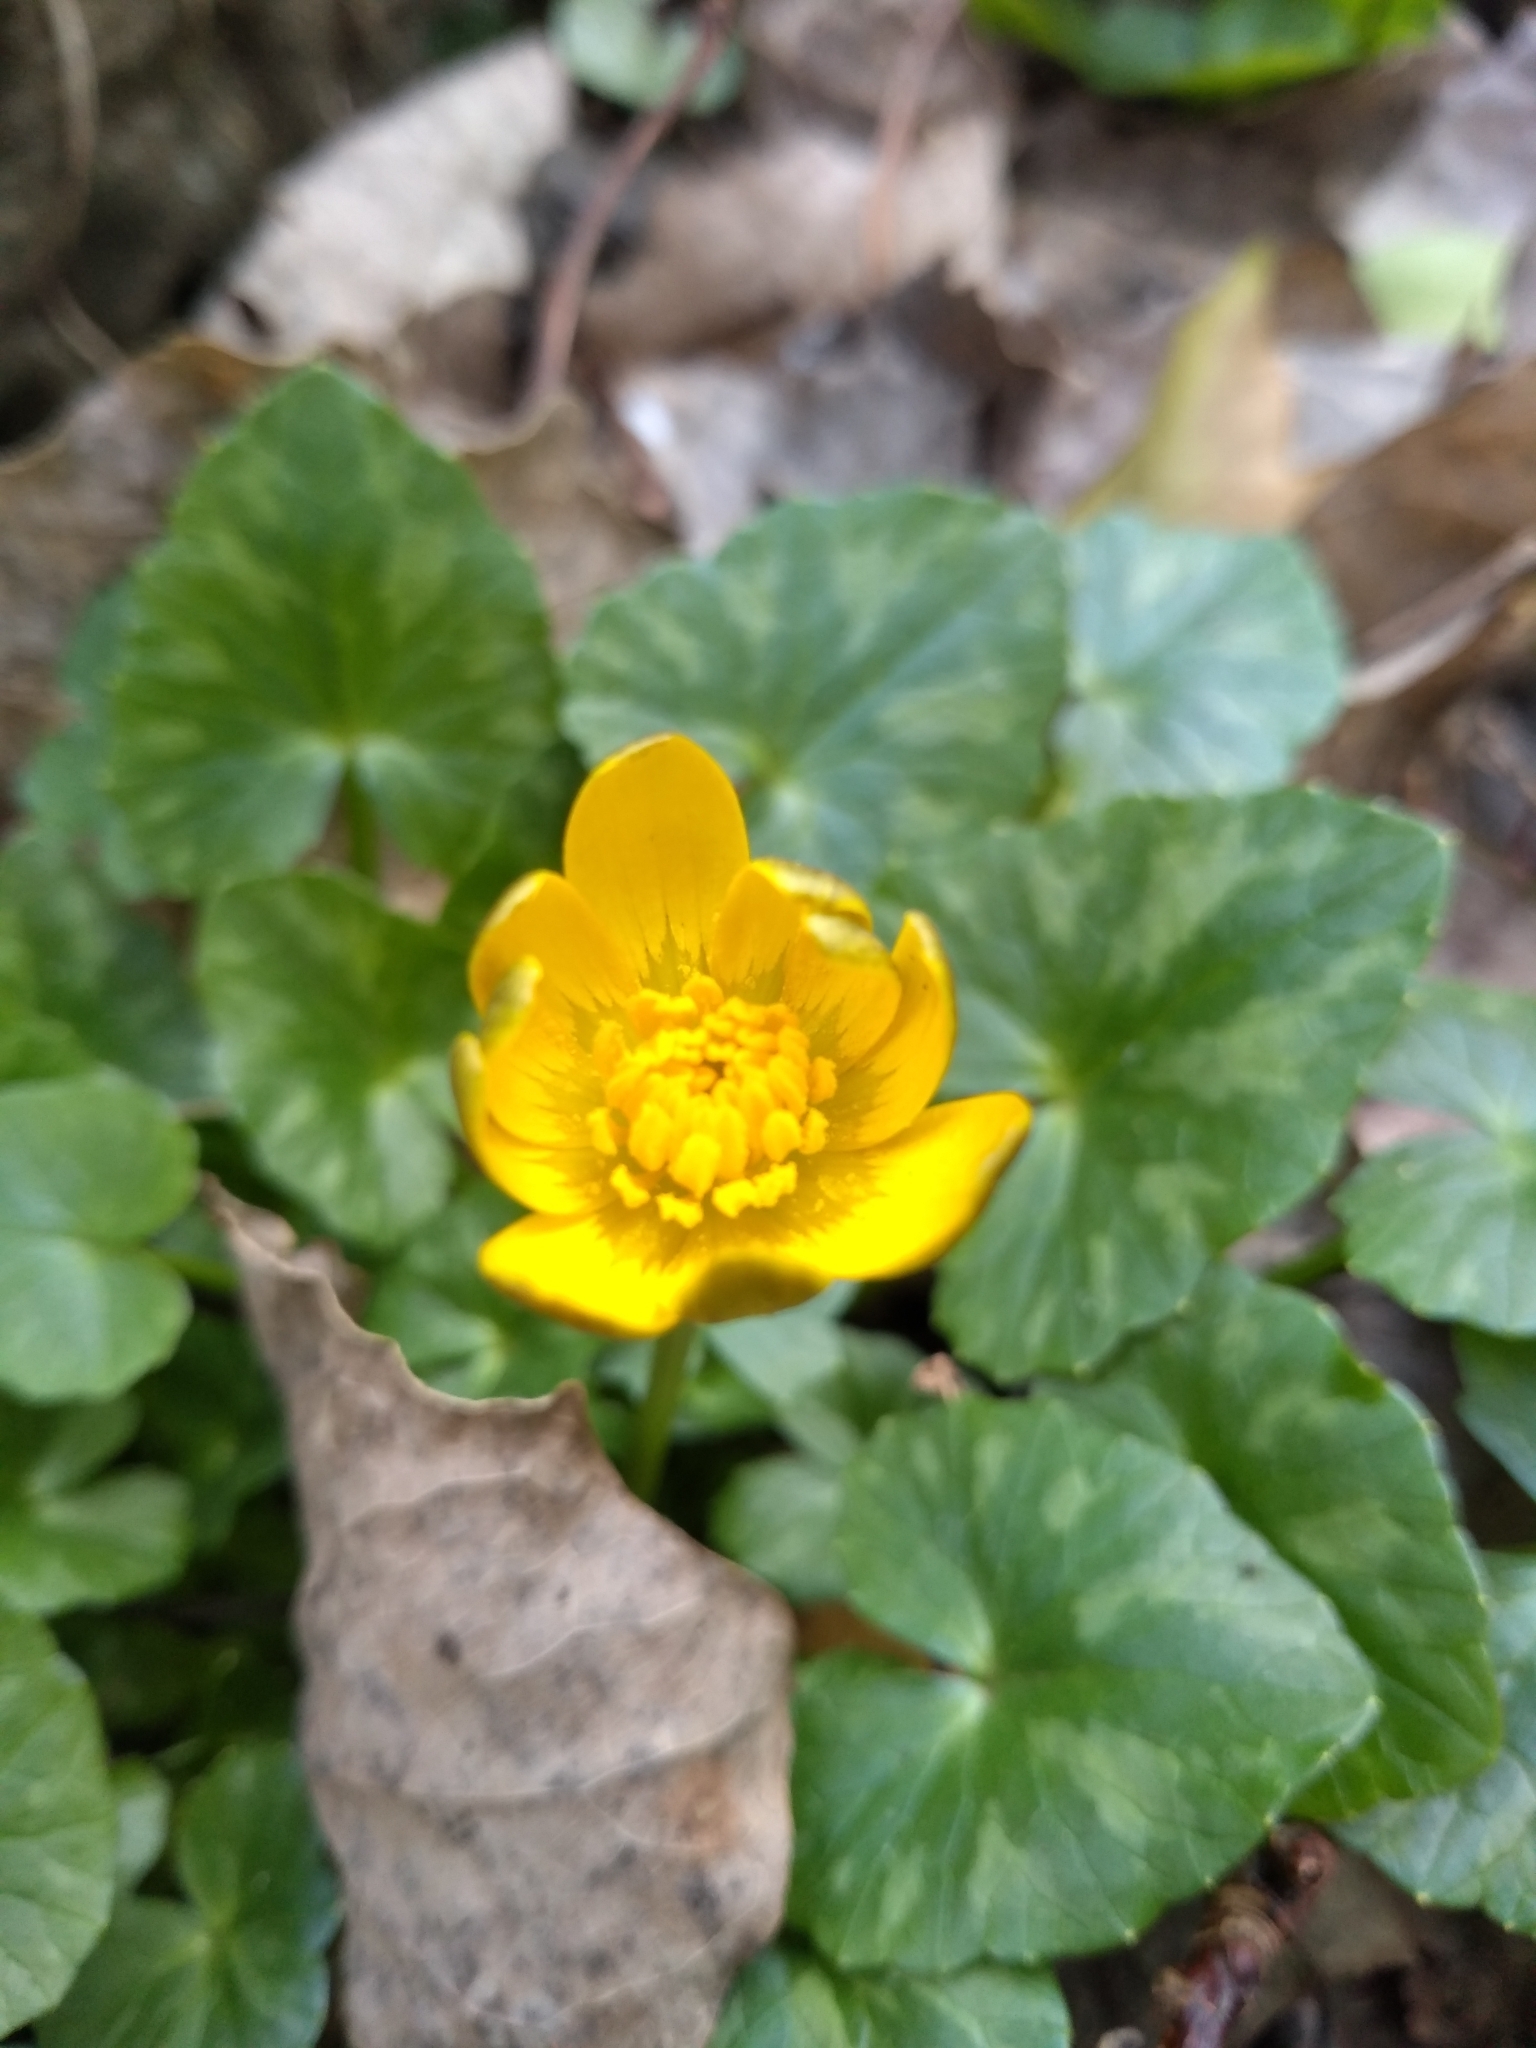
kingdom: Plantae
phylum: Tracheophyta
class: Magnoliopsida
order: Ranunculales
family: Ranunculaceae
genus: Ficaria
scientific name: Ficaria verna
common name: Lesser celandine
